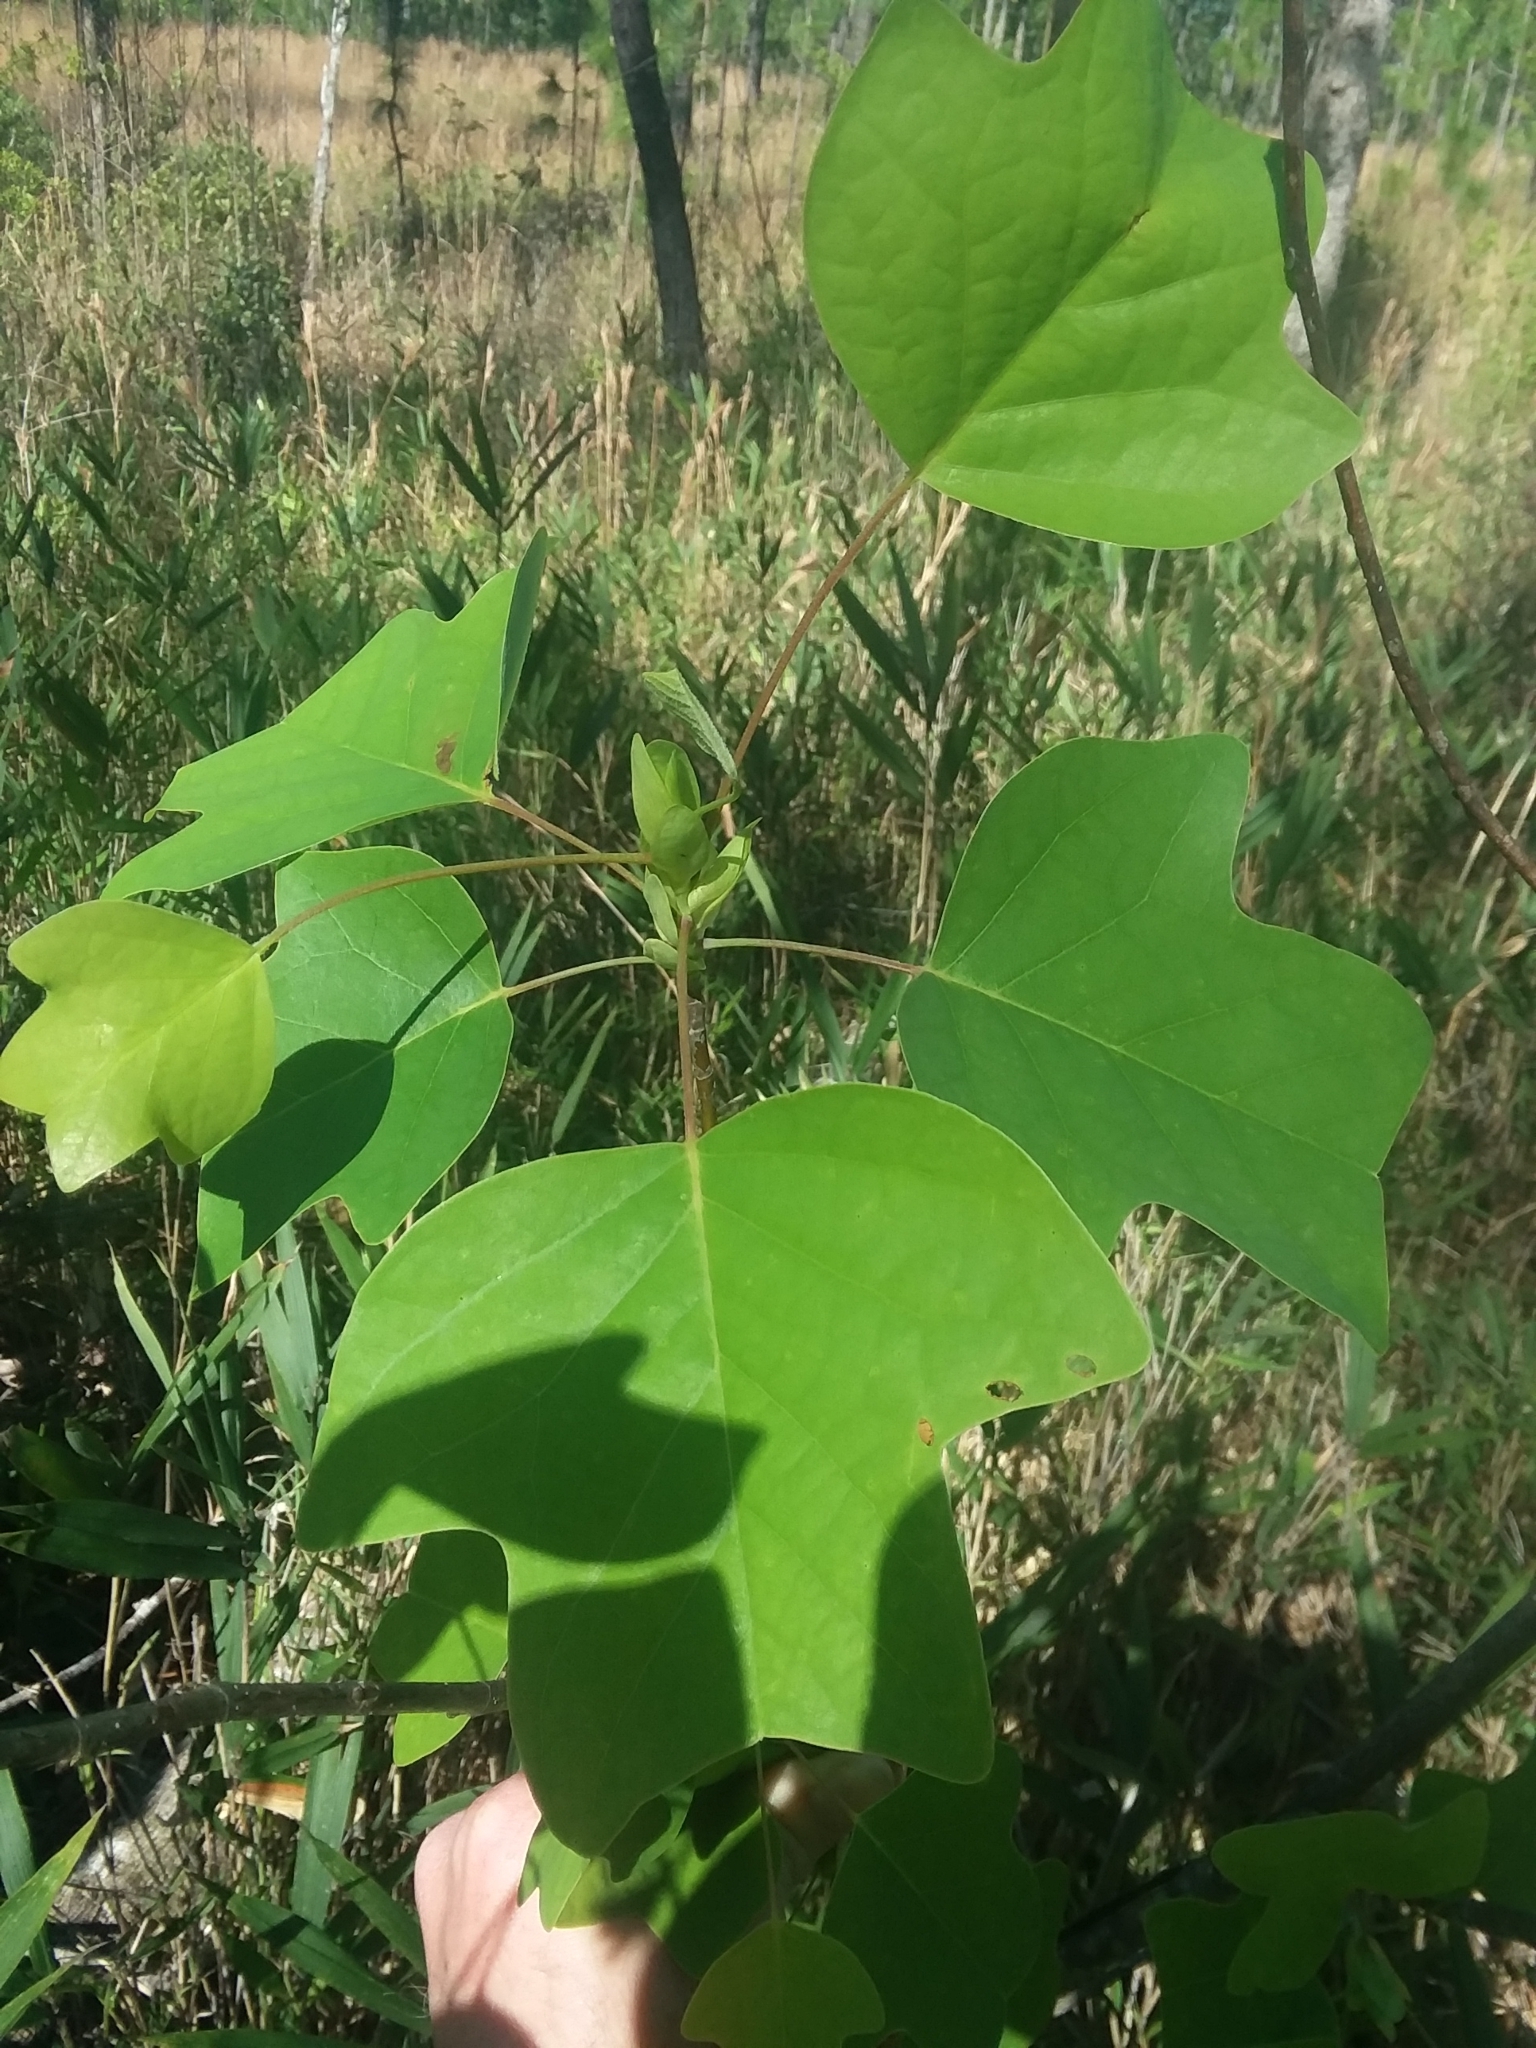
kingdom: Plantae
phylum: Tracheophyta
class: Magnoliopsida
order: Magnoliales
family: Magnoliaceae
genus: Liriodendron
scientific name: Liriodendron tulipifera
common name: Tulip tree
